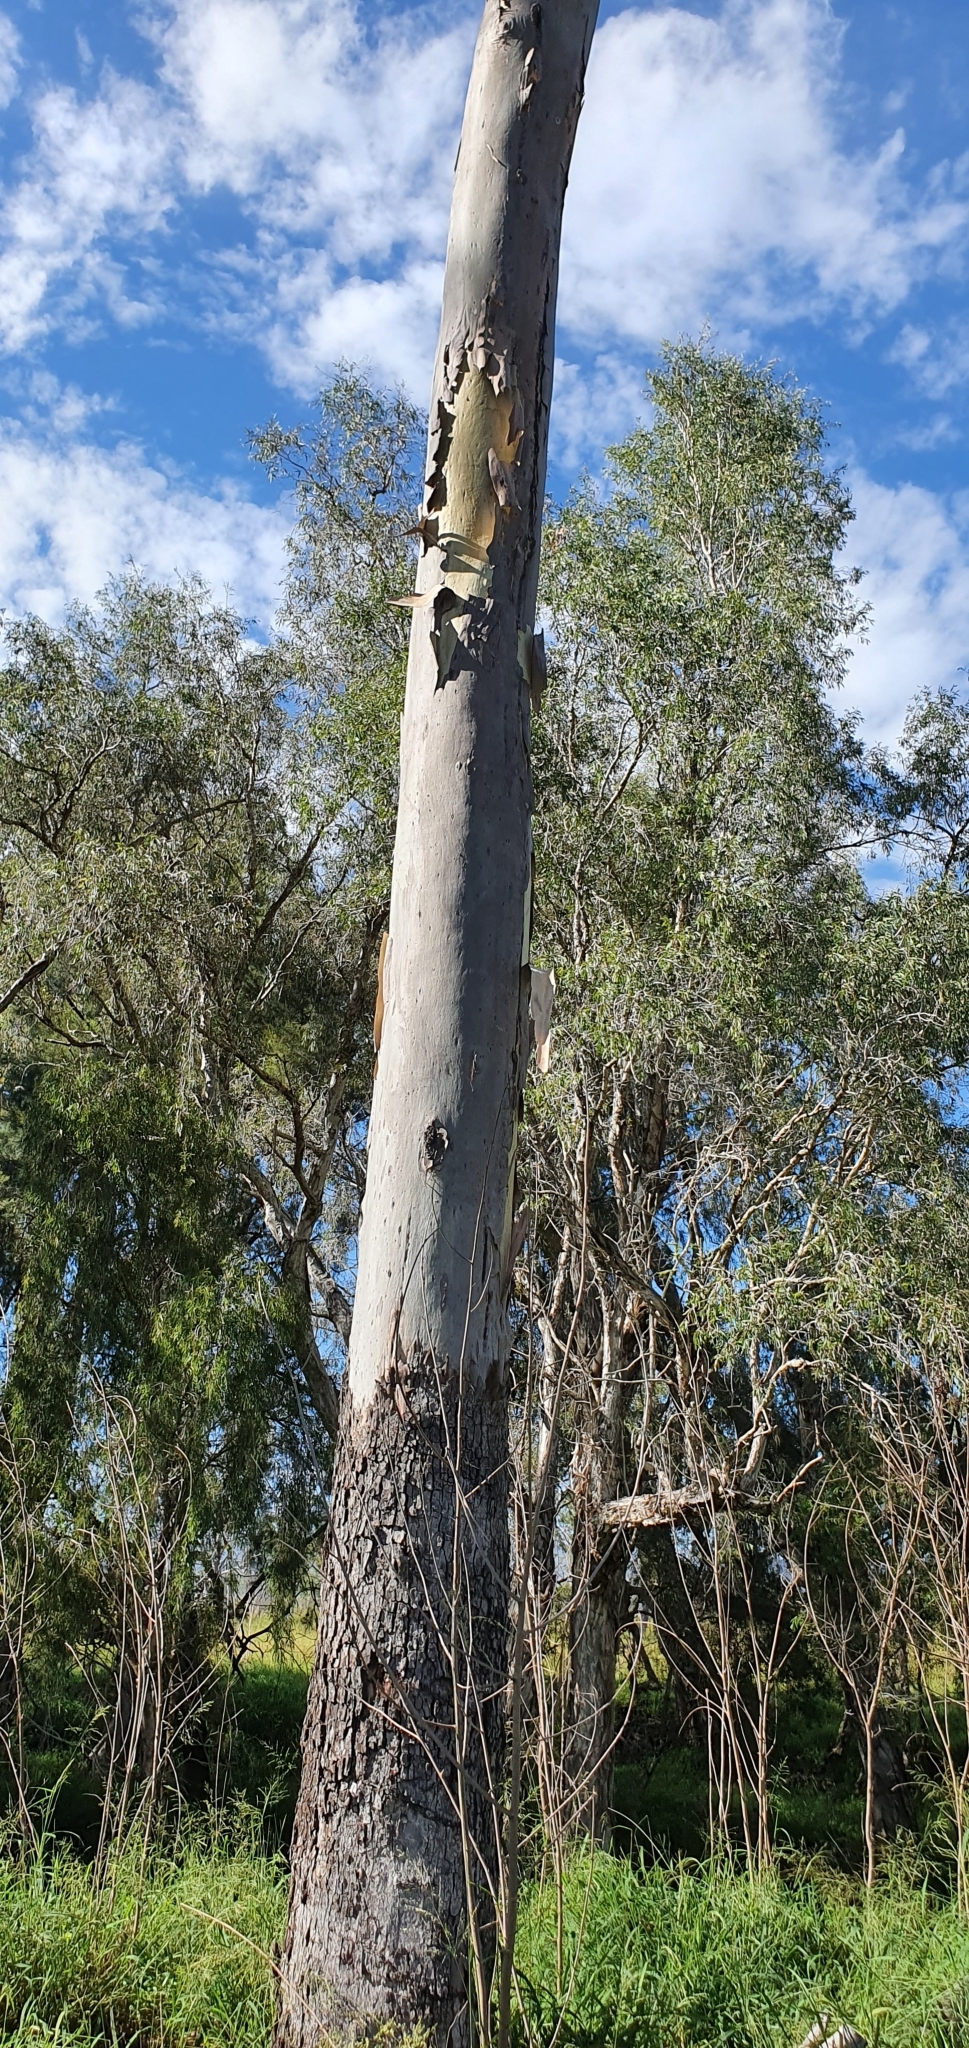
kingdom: Plantae
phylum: Tracheophyta
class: Magnoliopsida
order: Myrtales
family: Myrtaceae
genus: Corymbia
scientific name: Corymbia tessellaris
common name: Carbeen
